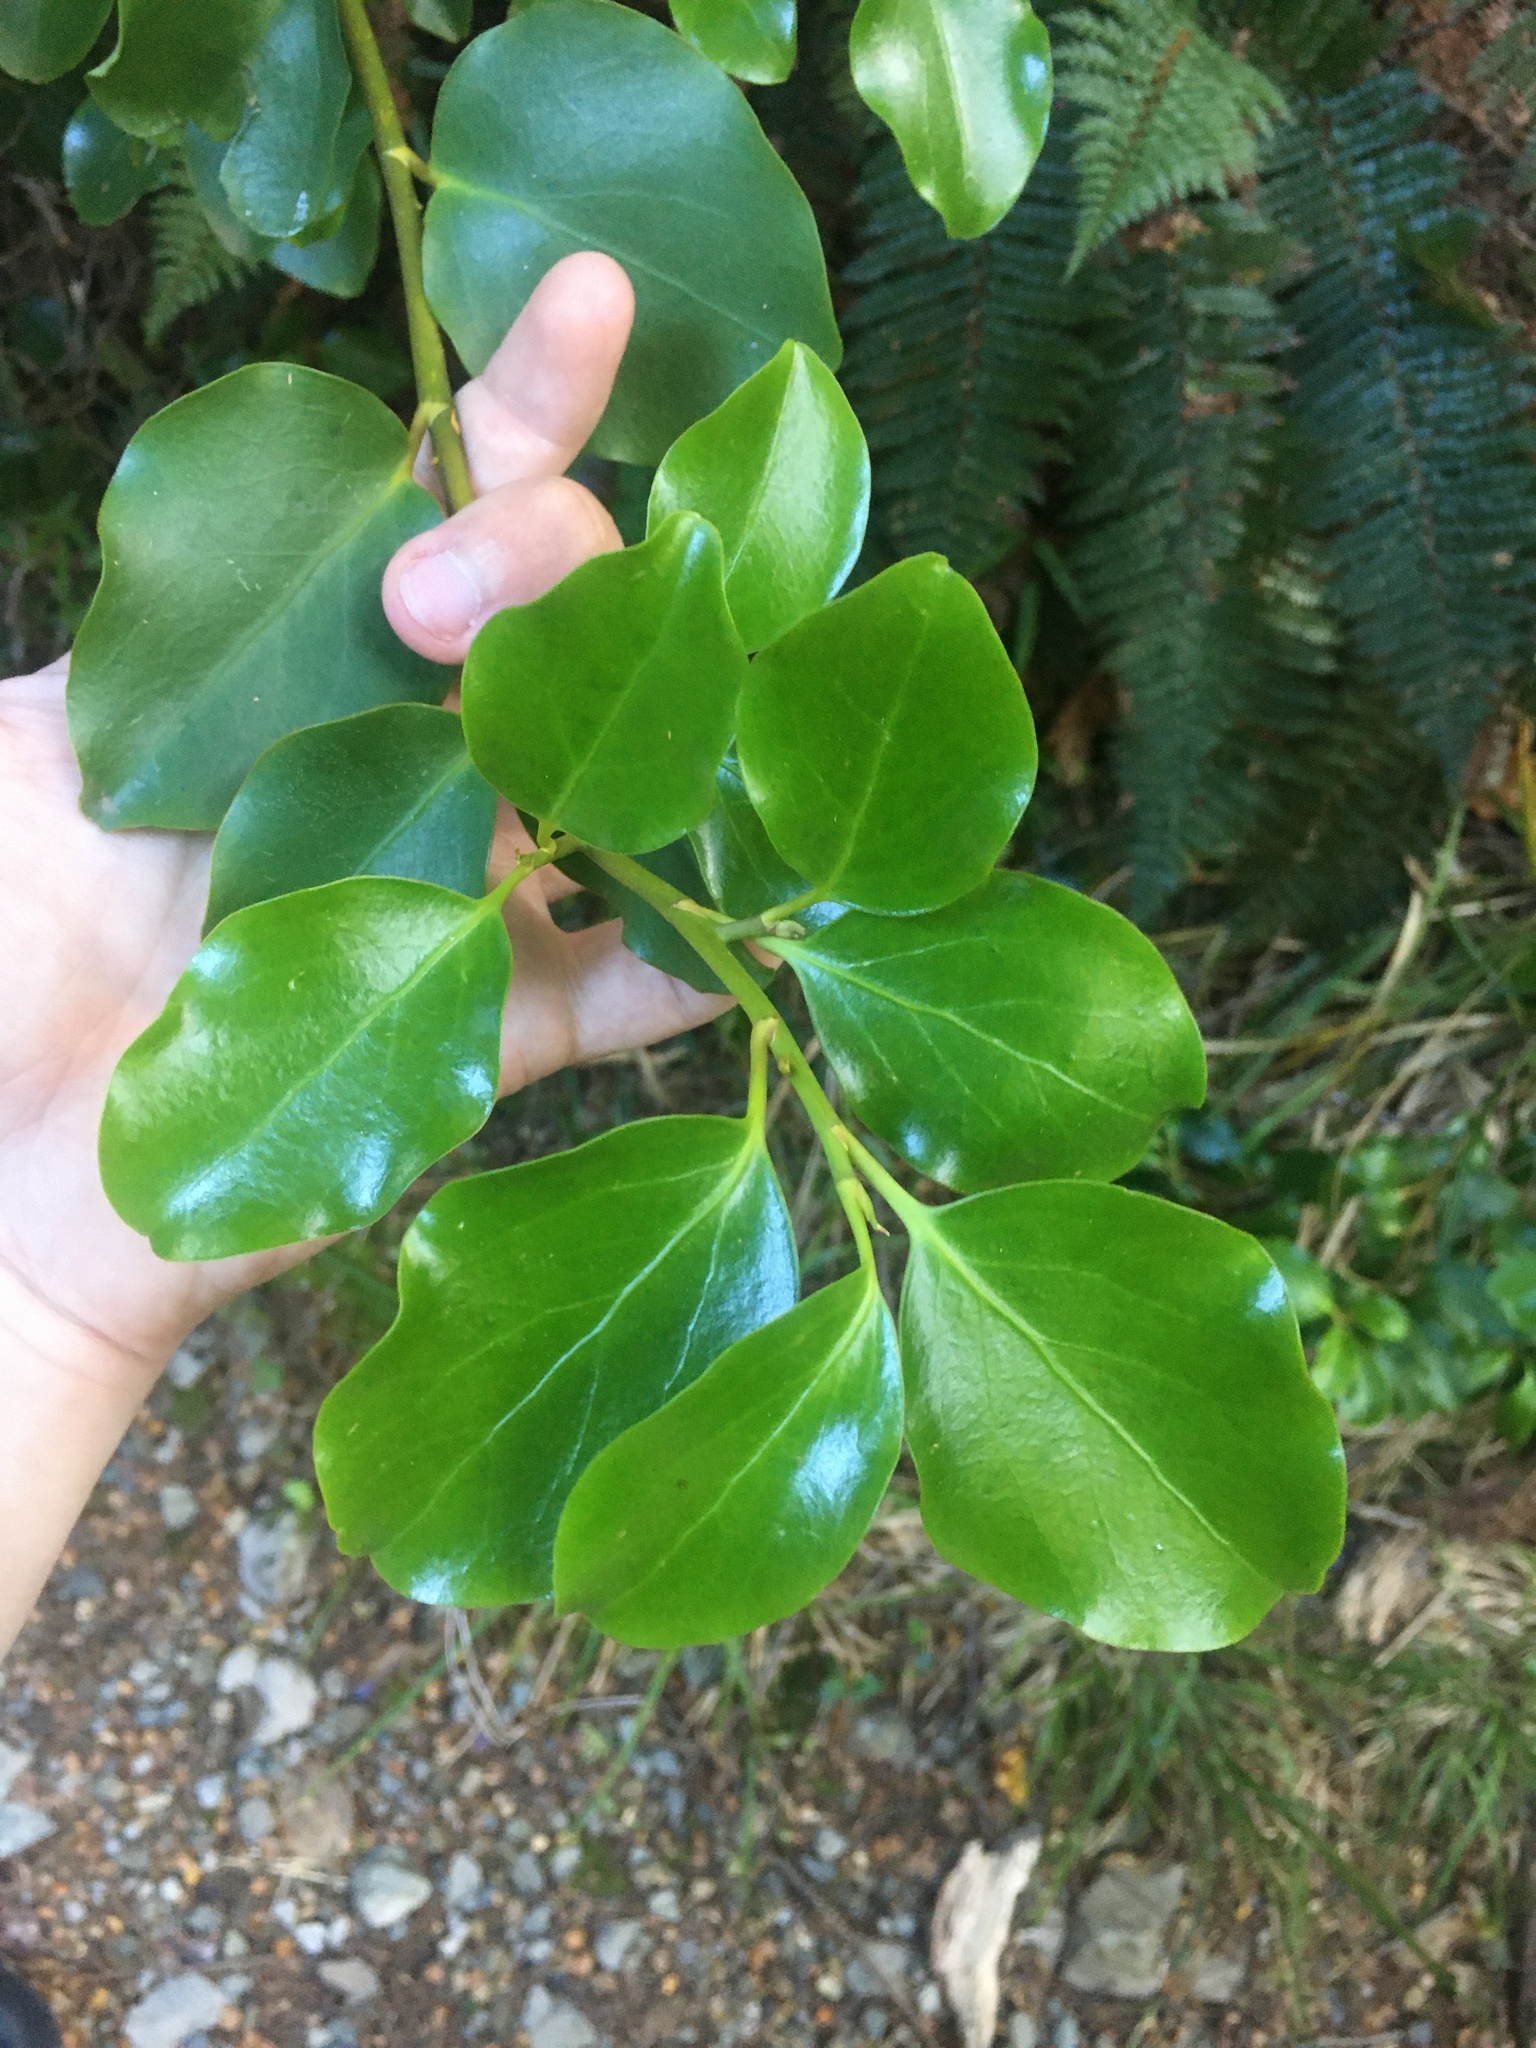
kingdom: Plantae
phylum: Tracheophyta
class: Magnoliopsida
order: Apiales
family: Griseliniaceae
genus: Griselinia
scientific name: Griselinia littoralis
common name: New zealand broadleaf
